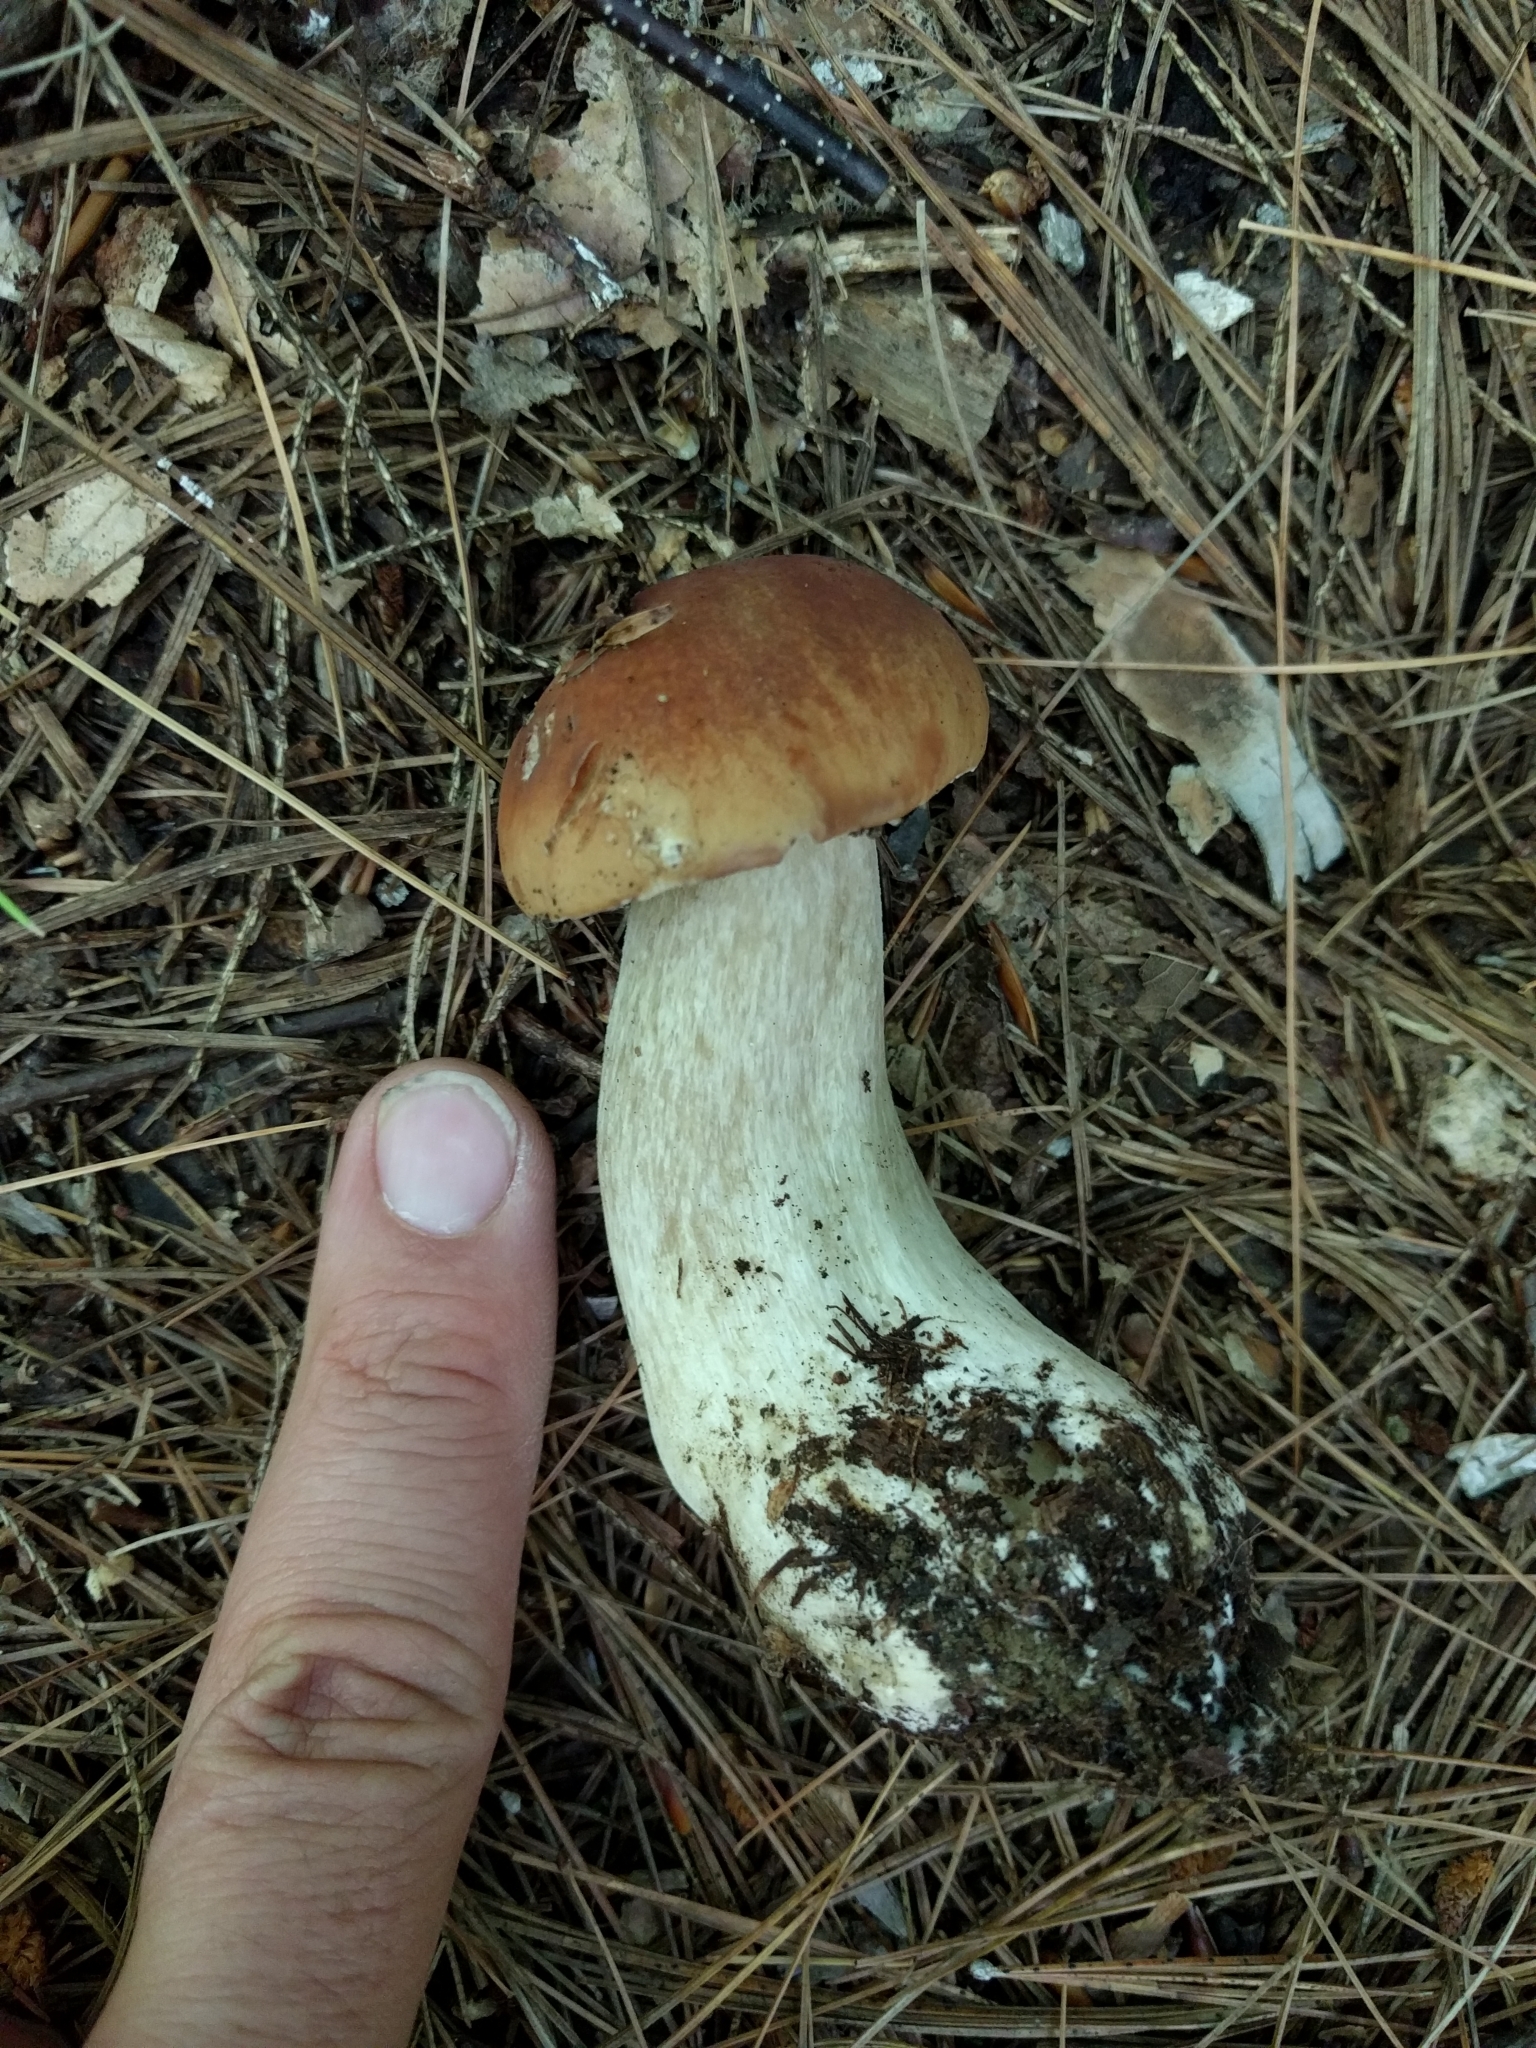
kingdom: Fungi
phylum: Basidiomycota
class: Agaricomycetes
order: Boletales
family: Boletaceae
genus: Boletus
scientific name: Boletus edulis
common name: Cep
